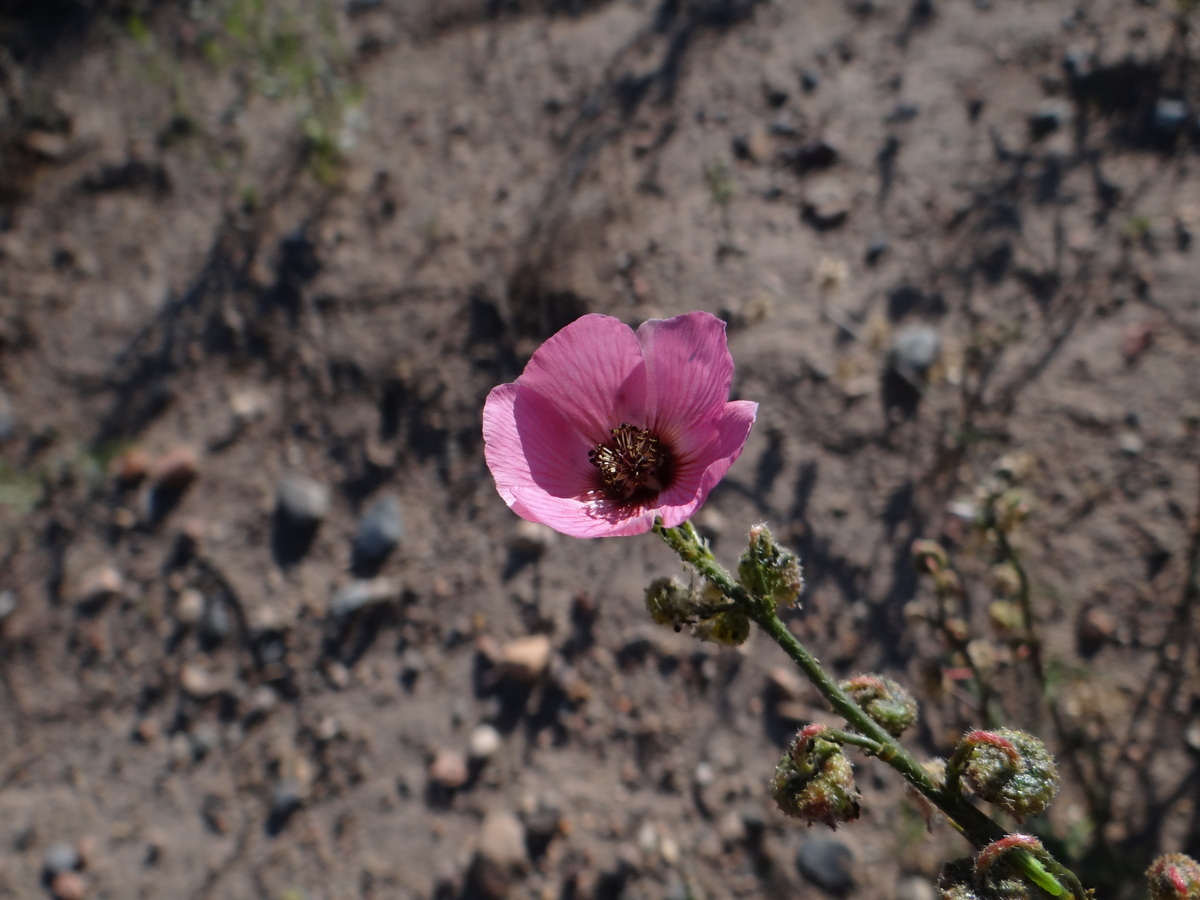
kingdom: Plantae
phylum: Tracheophyta
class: Magnoliopsida
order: Malvales
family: Malvaceae
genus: Lecanophora
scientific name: Lecanophora heterophylla
